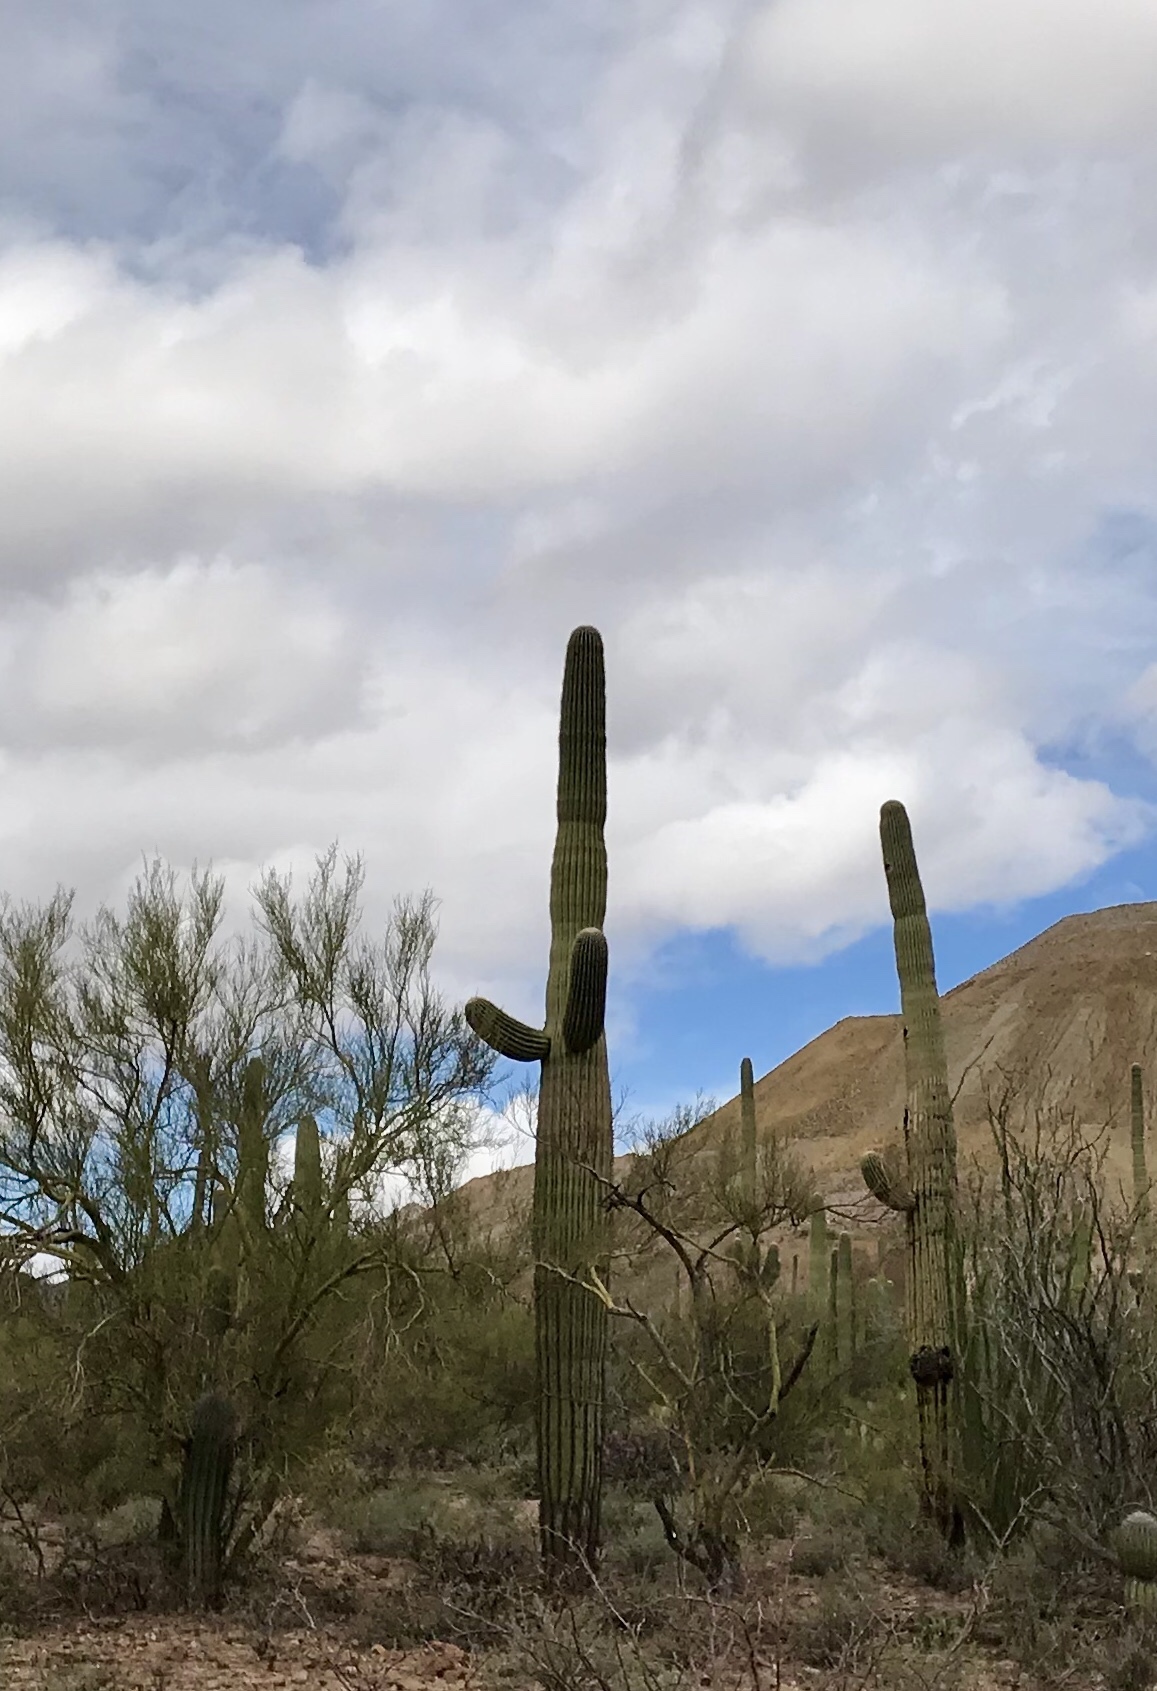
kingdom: Plantae
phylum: Tracheophyta
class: Magnoliopsida
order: Caryophyllales
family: Cactaceae
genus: Carnegiea
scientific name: Carnegiea gigantea
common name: Saguaro
